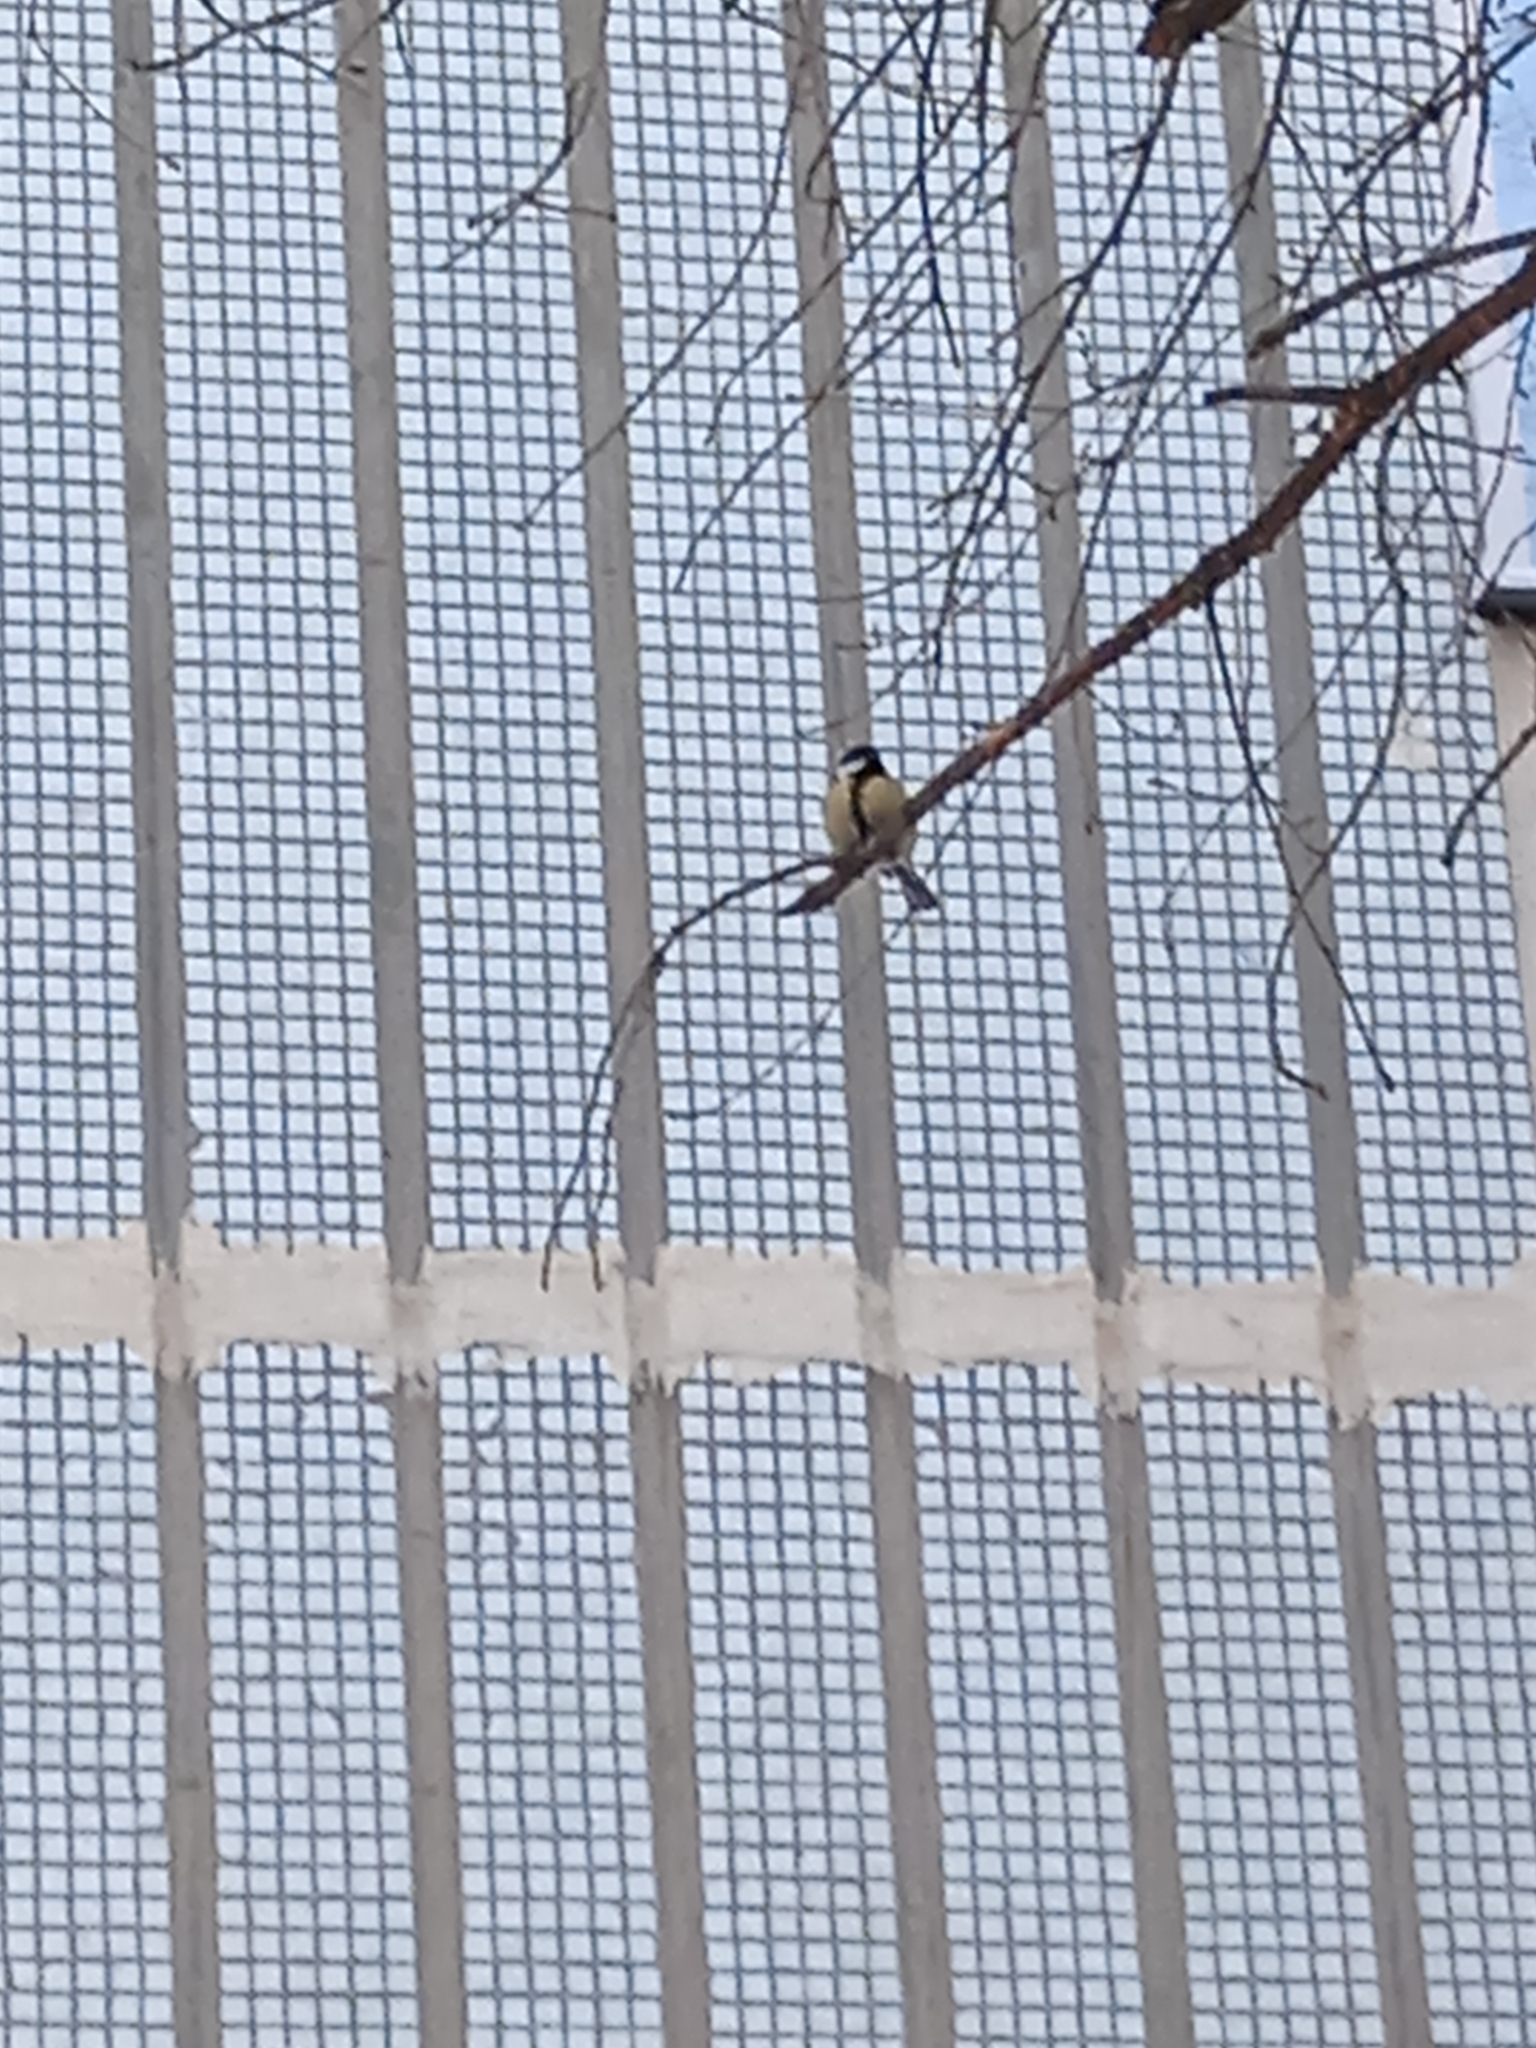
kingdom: Animalia
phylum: Chordata
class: Aves
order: Passeriformes
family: Paridae
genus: Parus
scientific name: Parus major
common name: Great tit
